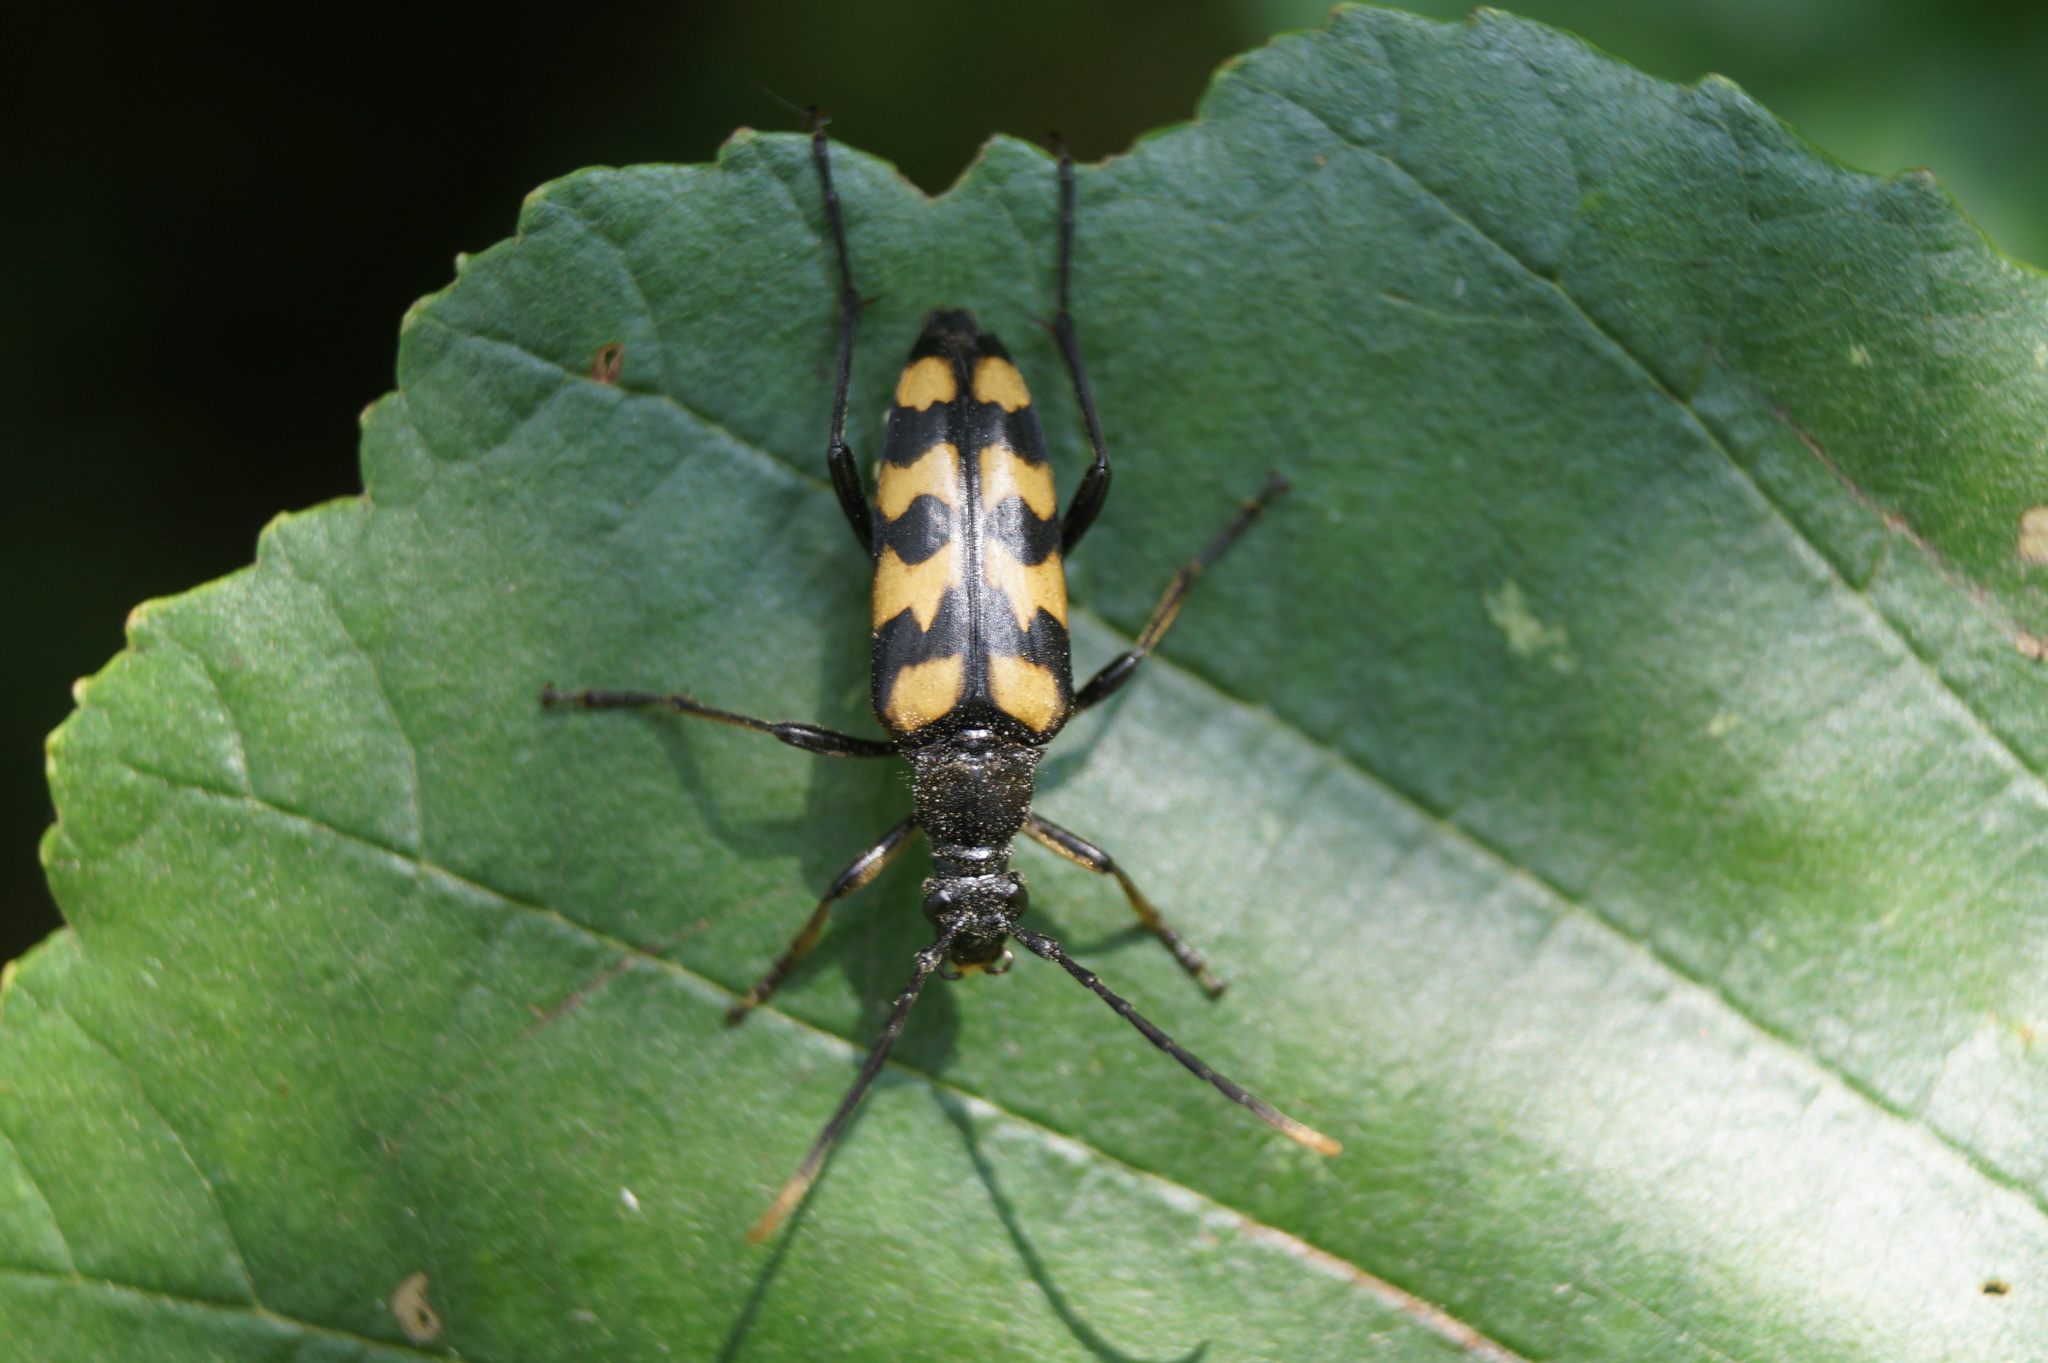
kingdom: Animalia
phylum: Arthropoda
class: Insecta
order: Coleoptera
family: Cerambycidae
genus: Leptura
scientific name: Leptura quadrifasciata
